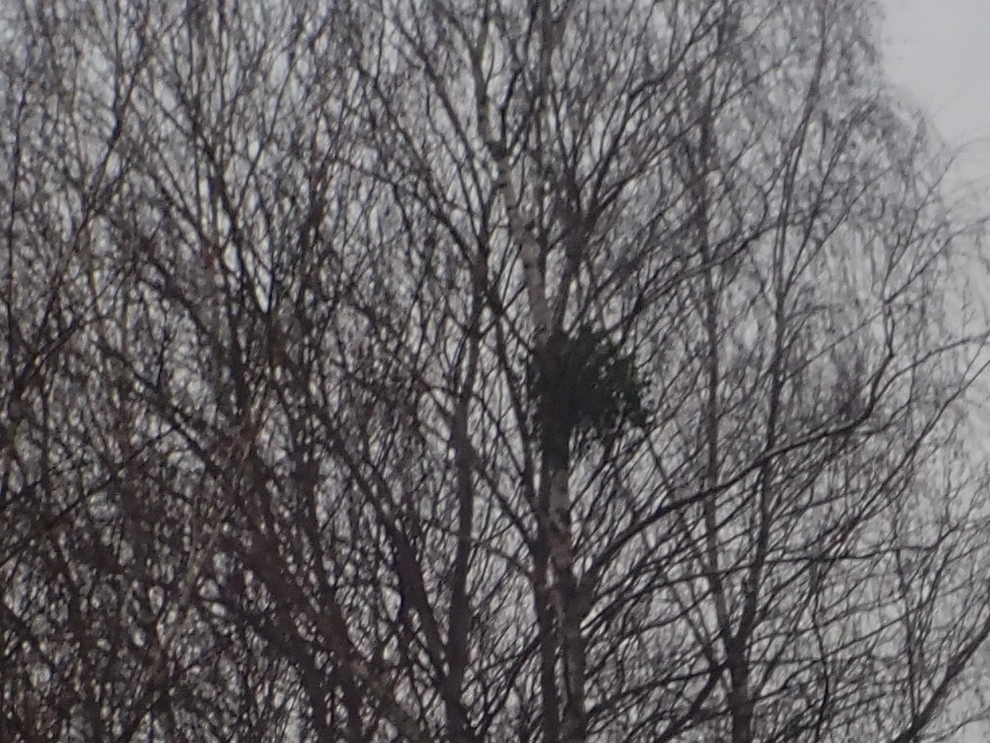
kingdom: Plantae
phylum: Tracheophyta
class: Magnoliopsida
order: Santalales
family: Viscaceae
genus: Viscum
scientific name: Viscum album
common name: Mistletoe
